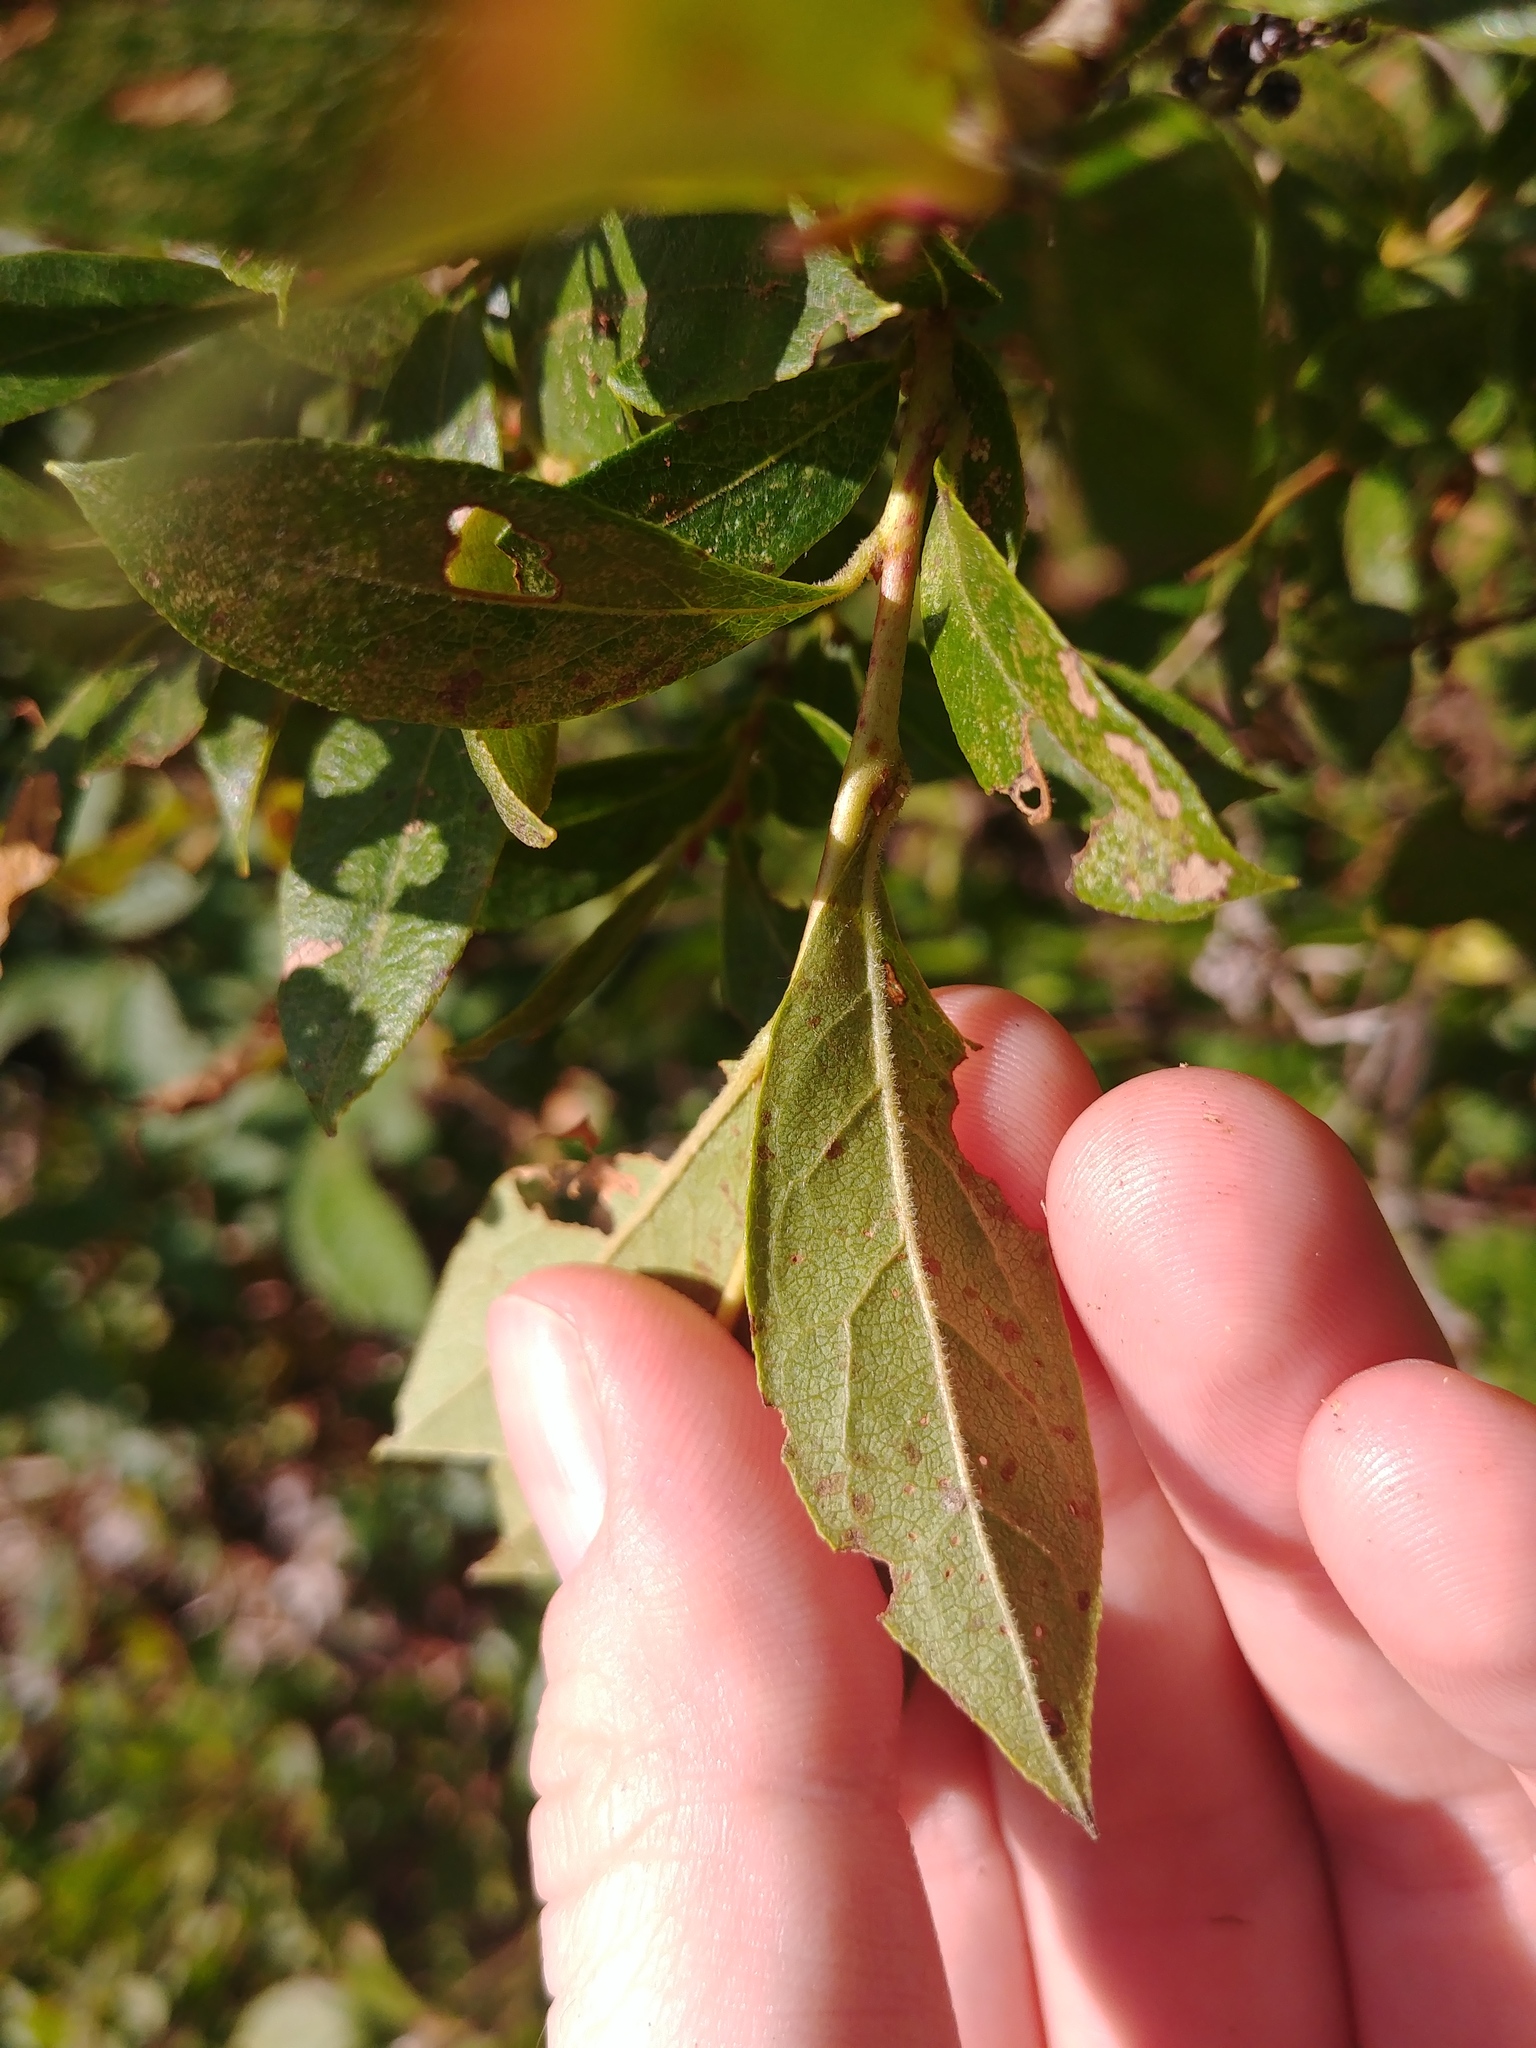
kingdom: Plantae
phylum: Tracheophyta
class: Magnoliopsida
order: Ericales
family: Ericaceae
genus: Lyonia
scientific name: Lyonia ligustrina
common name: Maleberry
